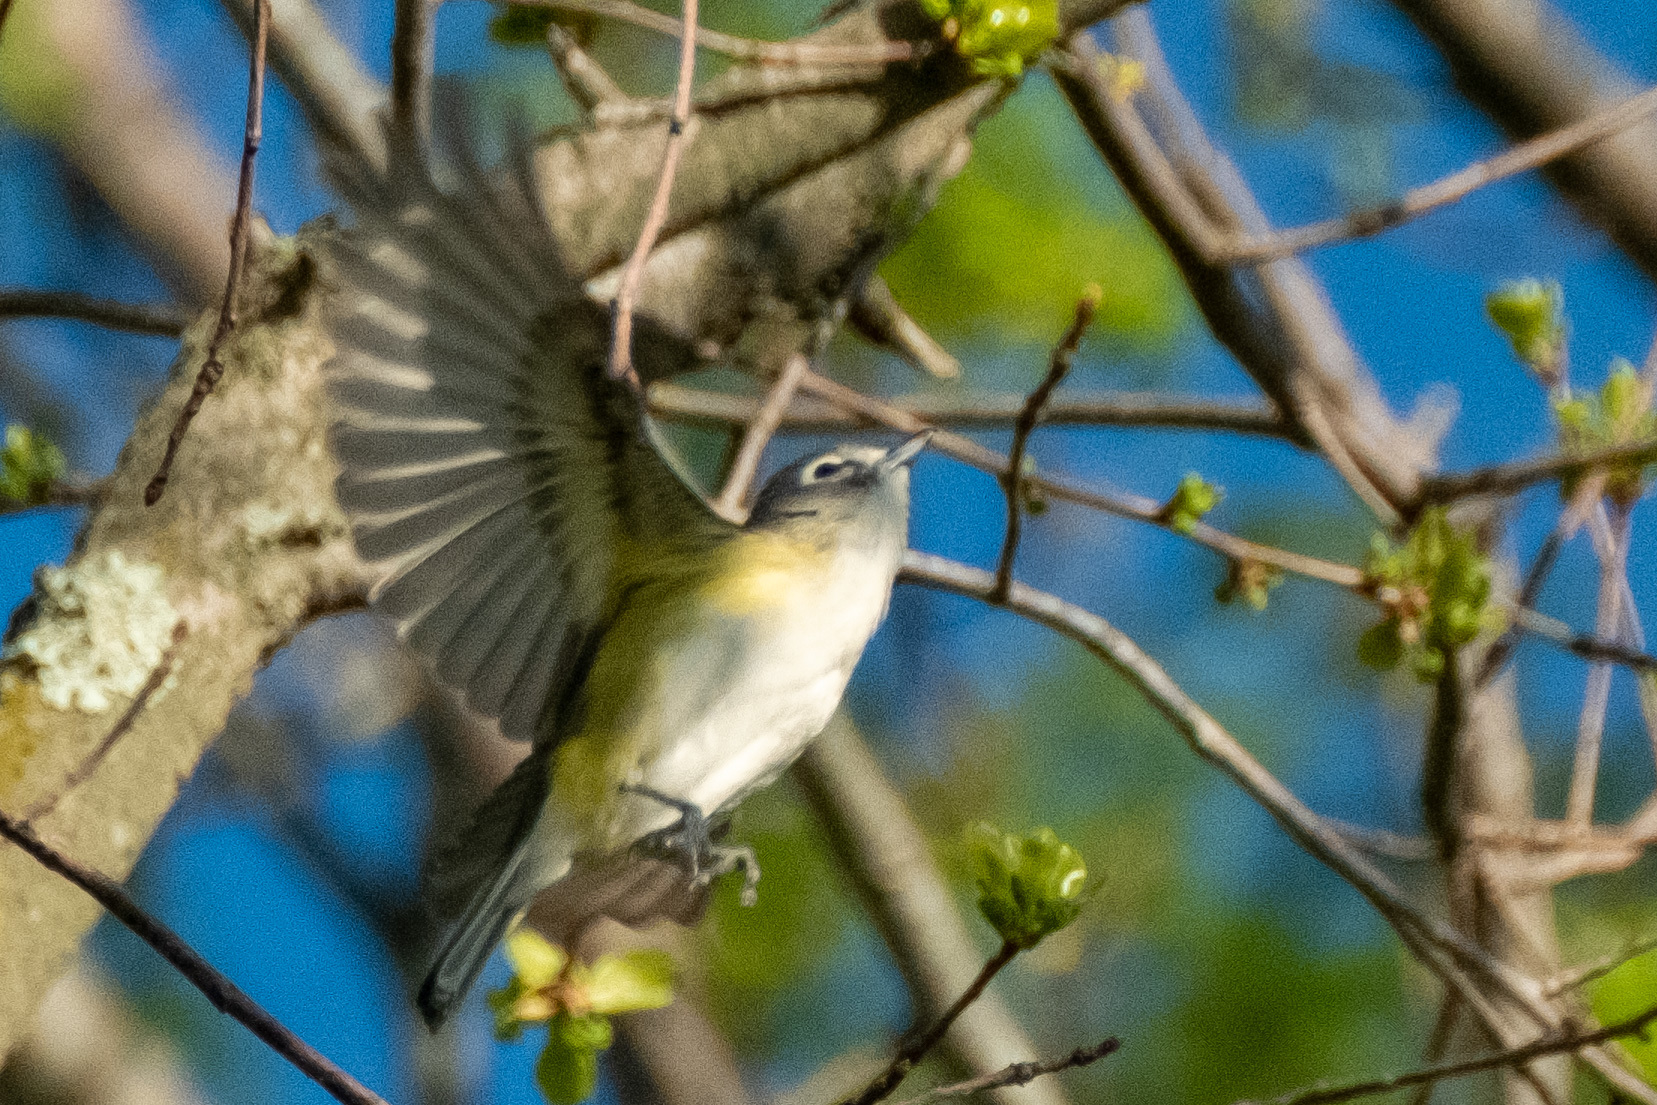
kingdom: Animalia
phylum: Chordata
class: Aves
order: Passeriformes
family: Vireonidae
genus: Vireo
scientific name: Vireo solitarius
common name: Blue-headed vireo
